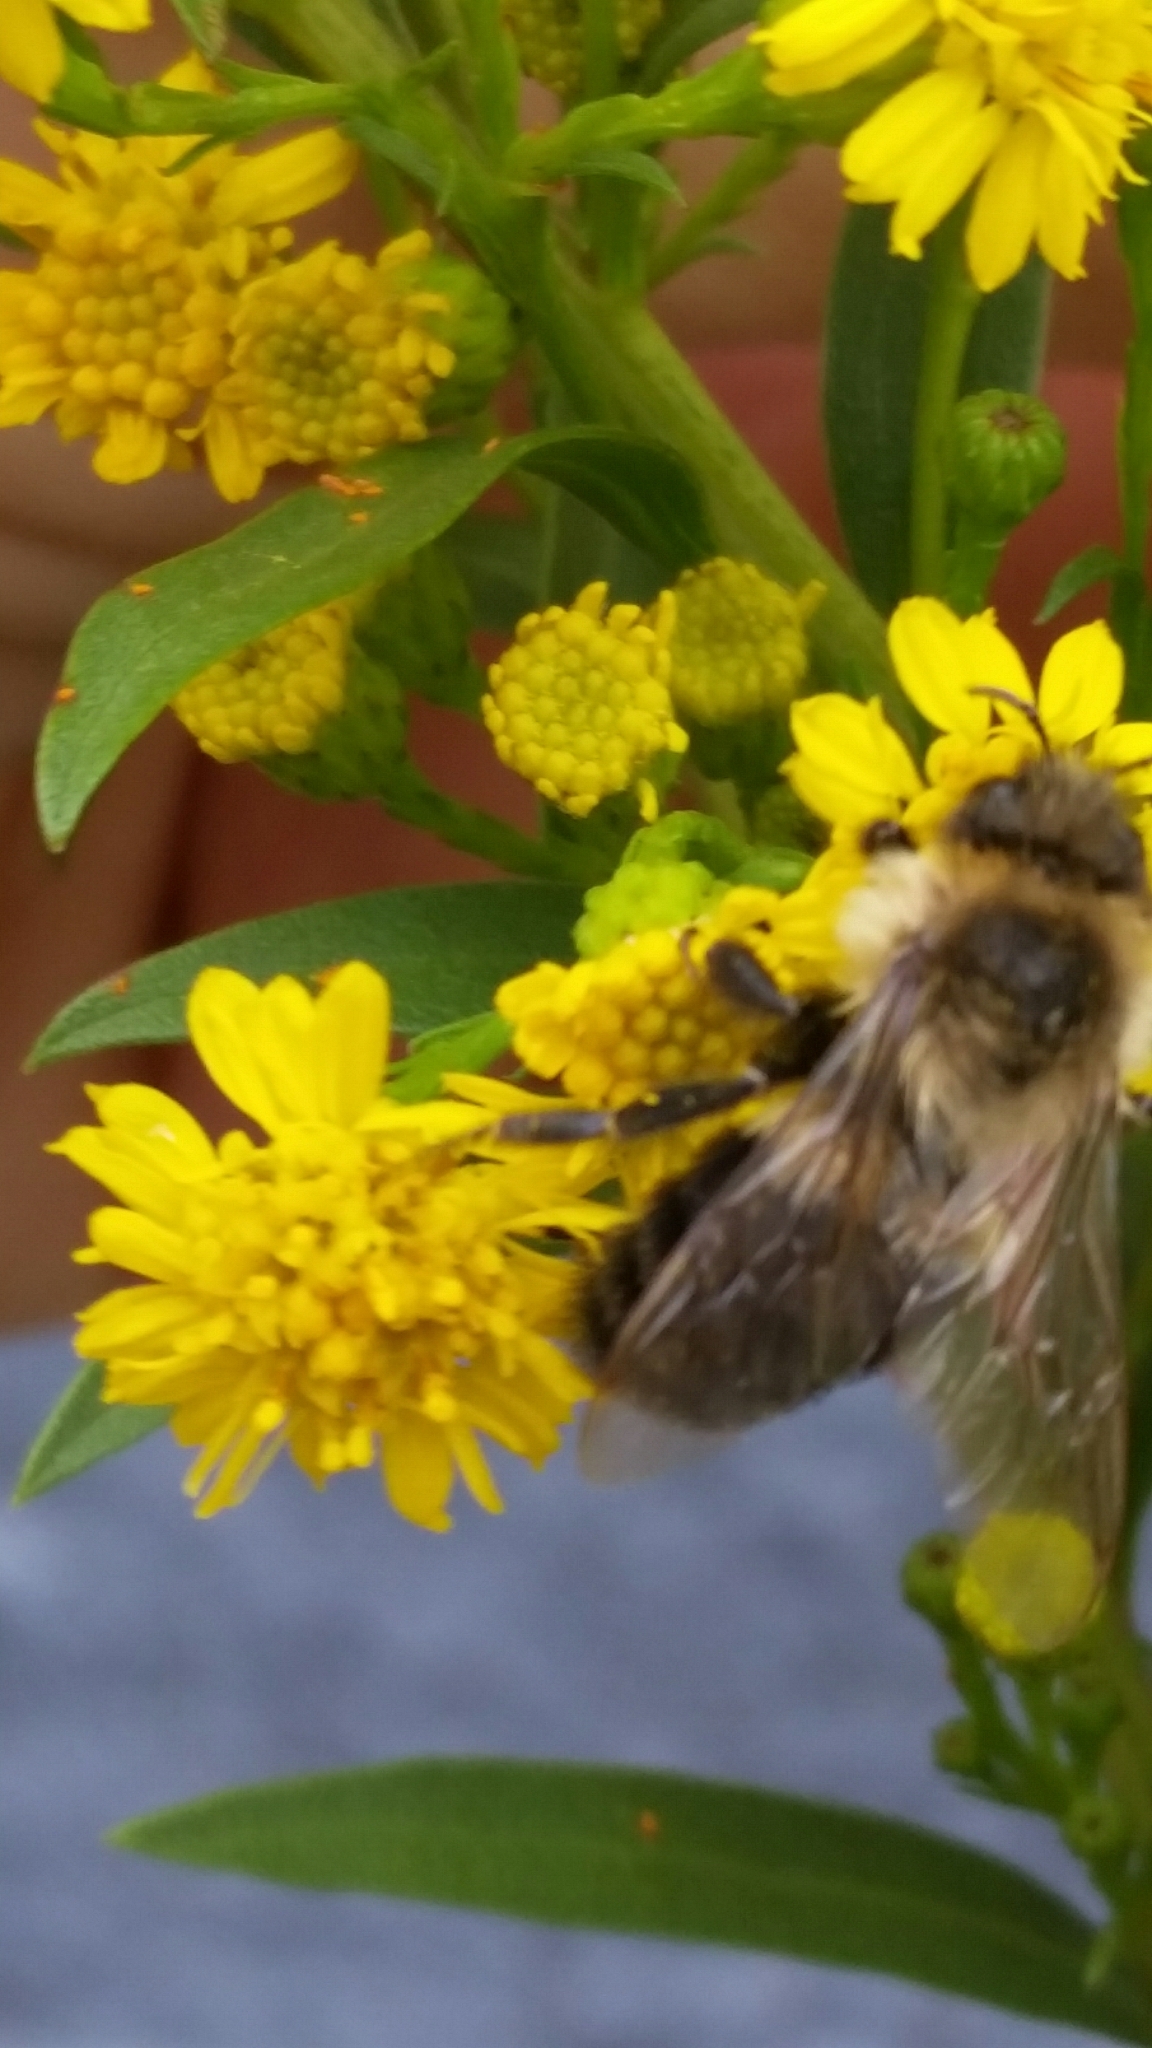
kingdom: Animalia
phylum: Arthropoda
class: Insecta
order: Hymenoptera
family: Apidae
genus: Bombus
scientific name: Bombus impatiens
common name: Common eastern bumble bee
